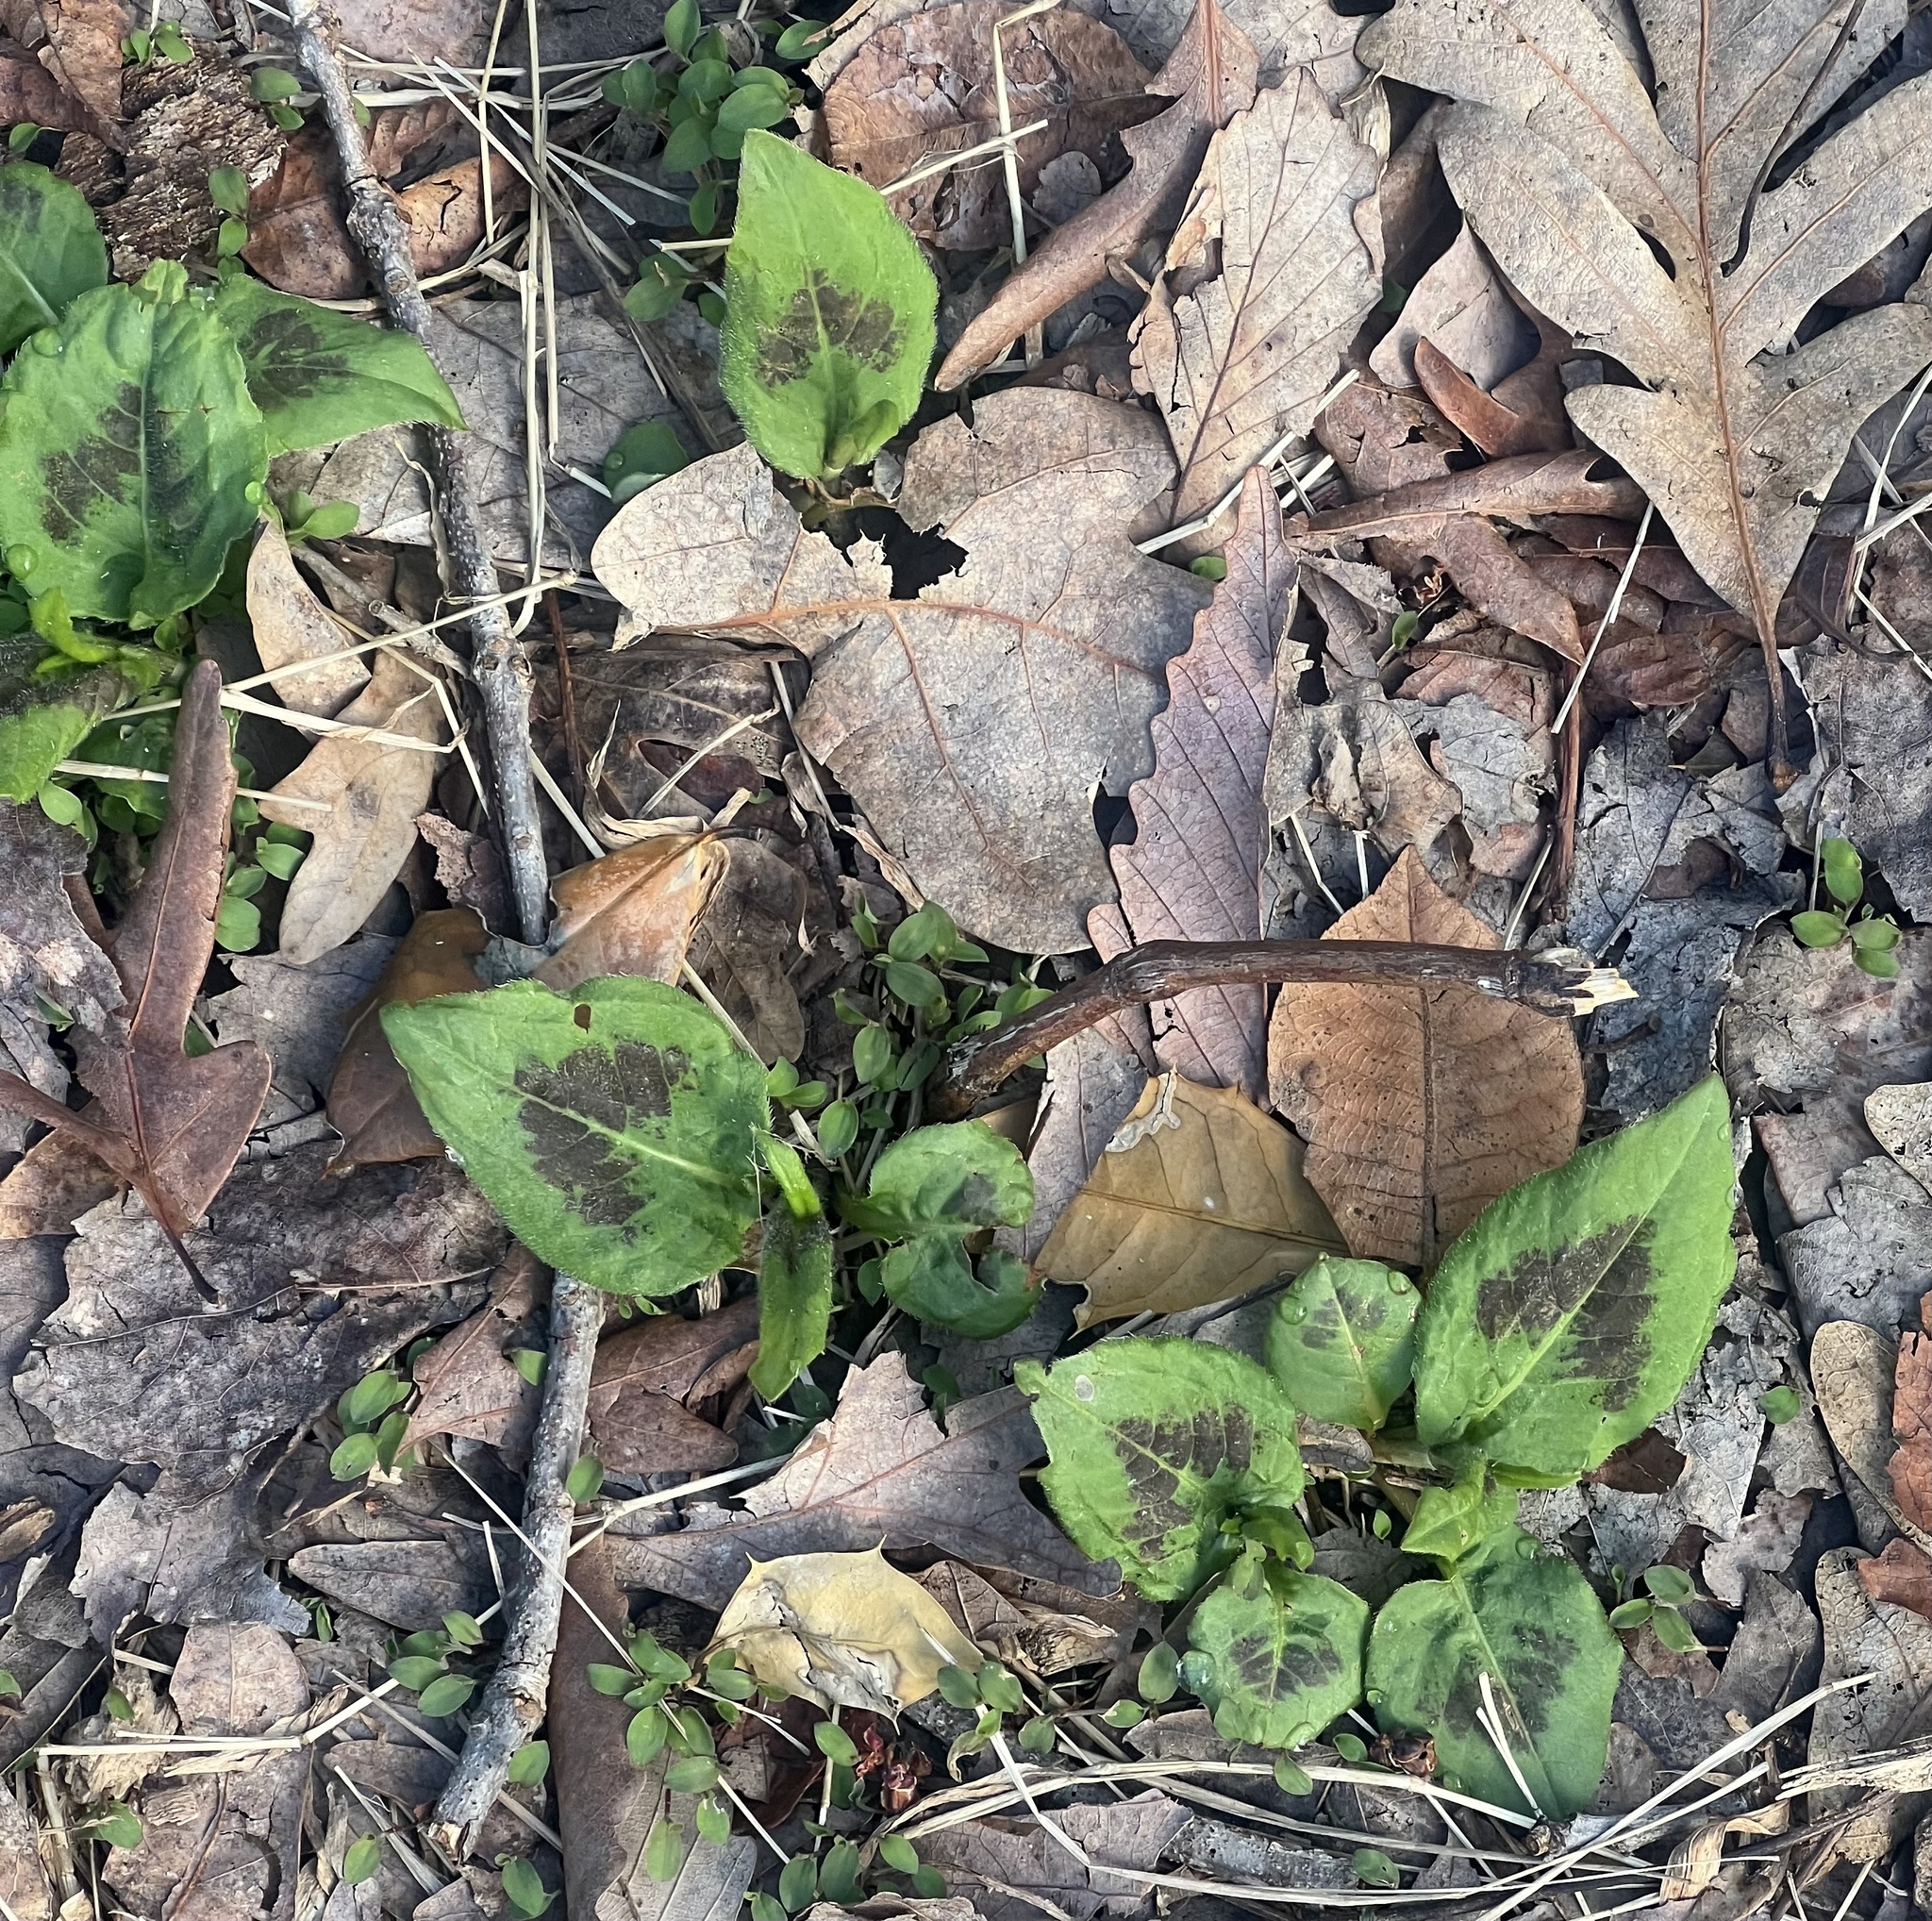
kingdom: Plantae
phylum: Tracheophyta
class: Magnoliopsida
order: Caryophyllales
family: Polygonaceae
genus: Persicaria
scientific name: Persicaria virginiana
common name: Jumpseed
